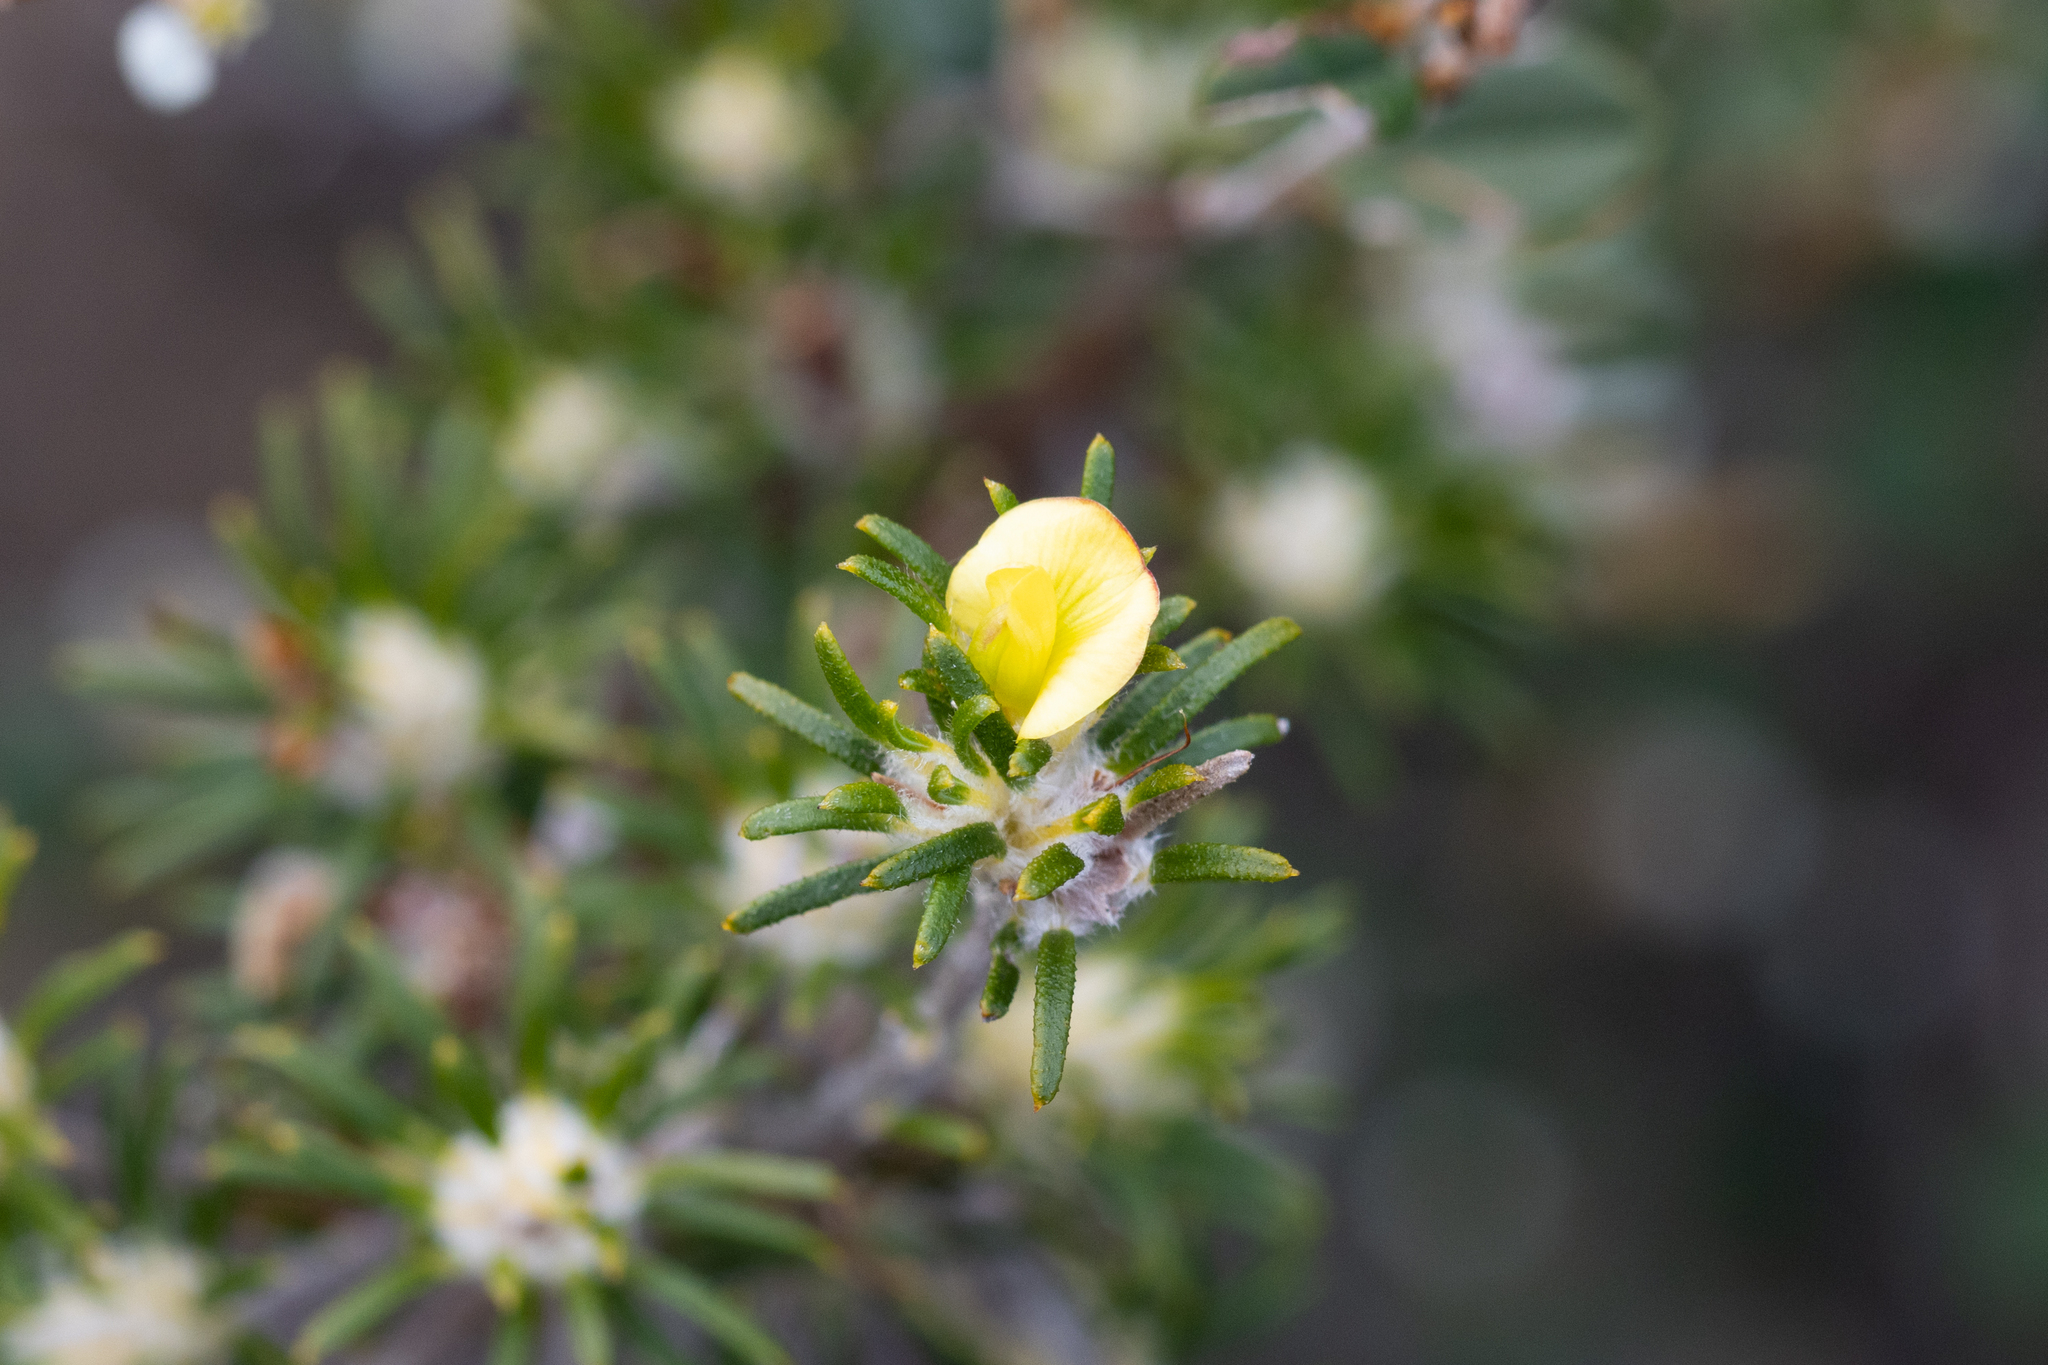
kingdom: Plantae
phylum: Tracheophyta
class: Magnoliopsida
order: Fabales
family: Fabaceae
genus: Phyllota
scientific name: Phyllota pleurandroides
